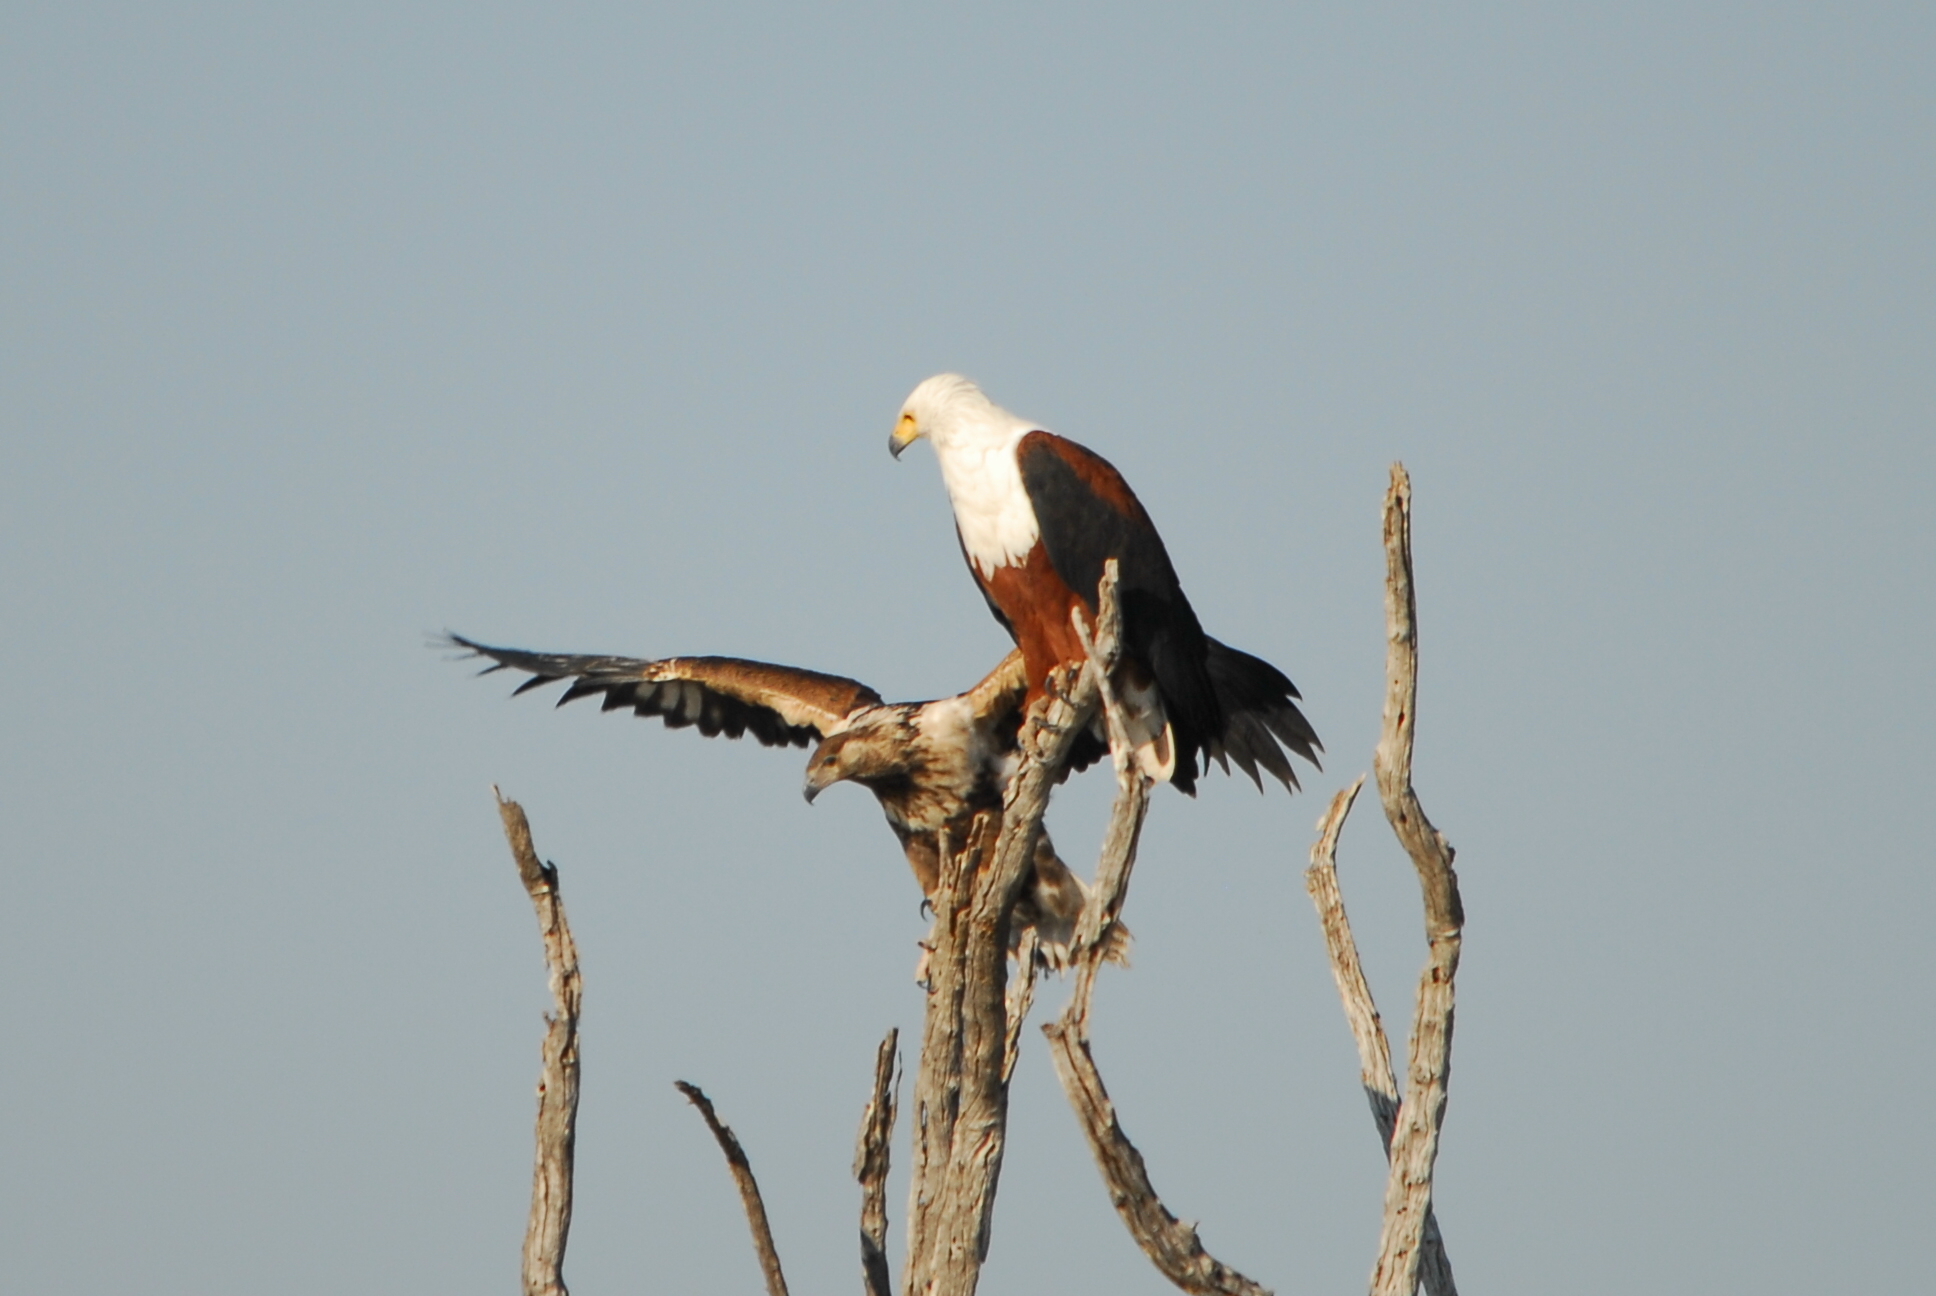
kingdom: Animalia
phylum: Chordata
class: Aves
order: Accipitriformes
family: Accipitridae
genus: Haliaeetus
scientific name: Haliaeetus vocifer
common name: African fish eagle
